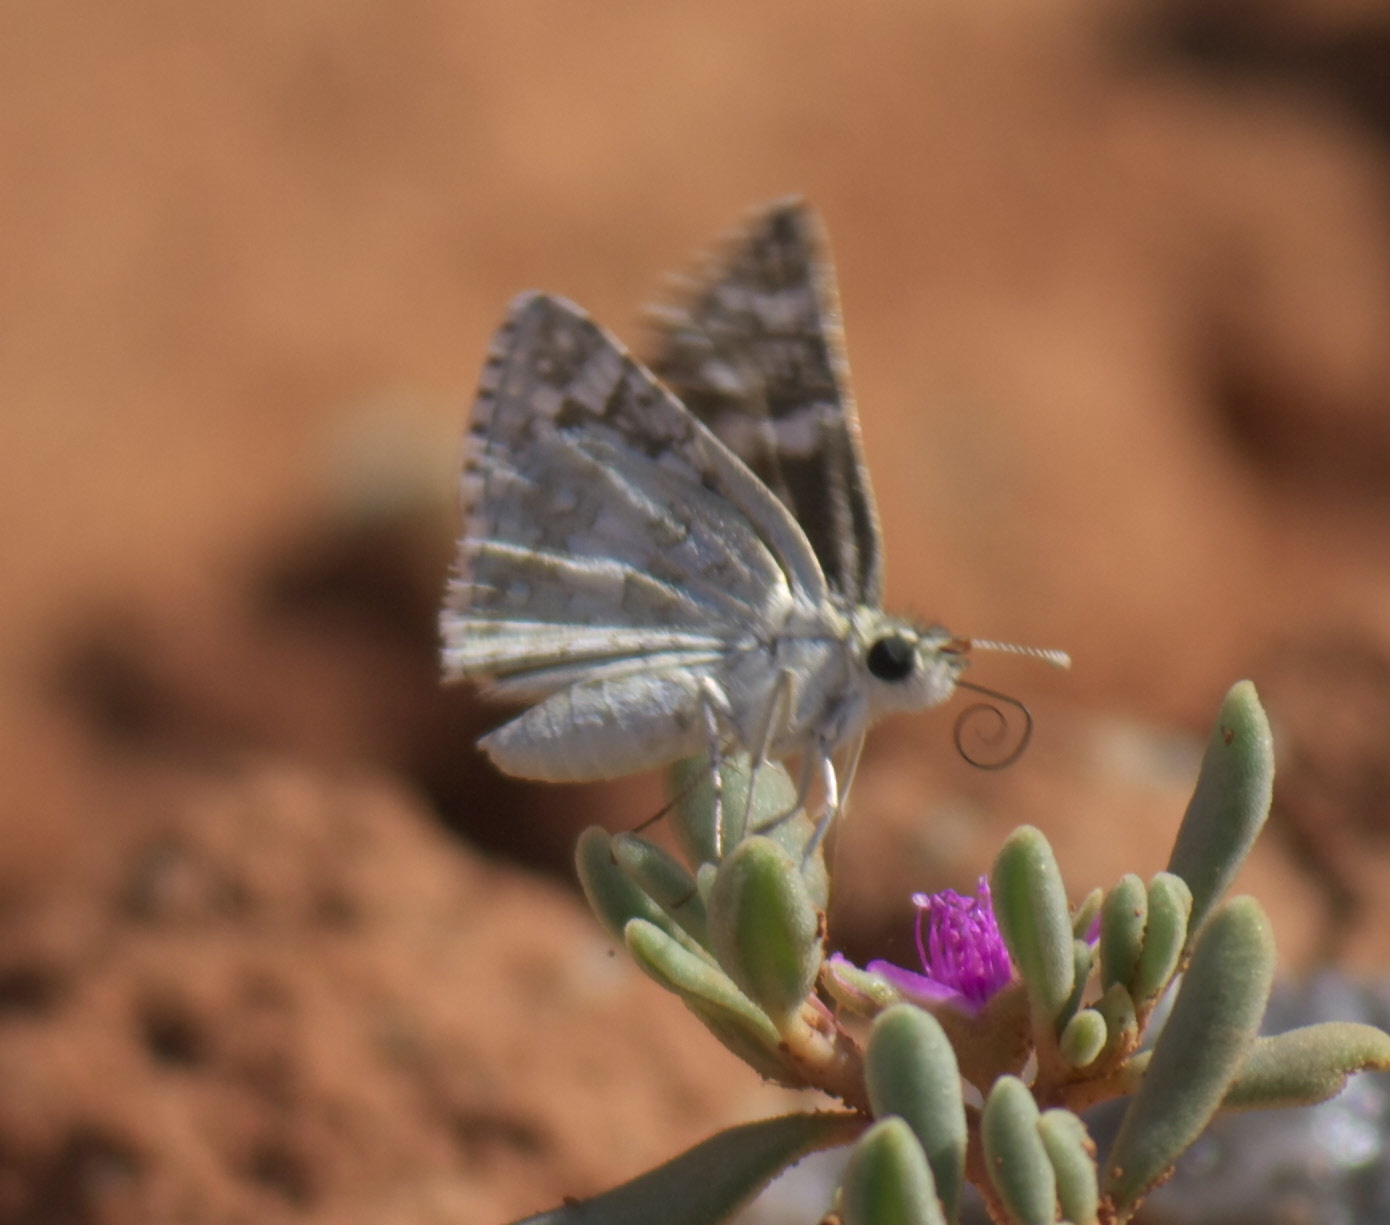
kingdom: Animalia
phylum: Arthropoda
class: Insecta
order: Lepidoptera
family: Hesperiidae
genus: Burnsius
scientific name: Burnsius communis
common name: Common checkered-skipper
